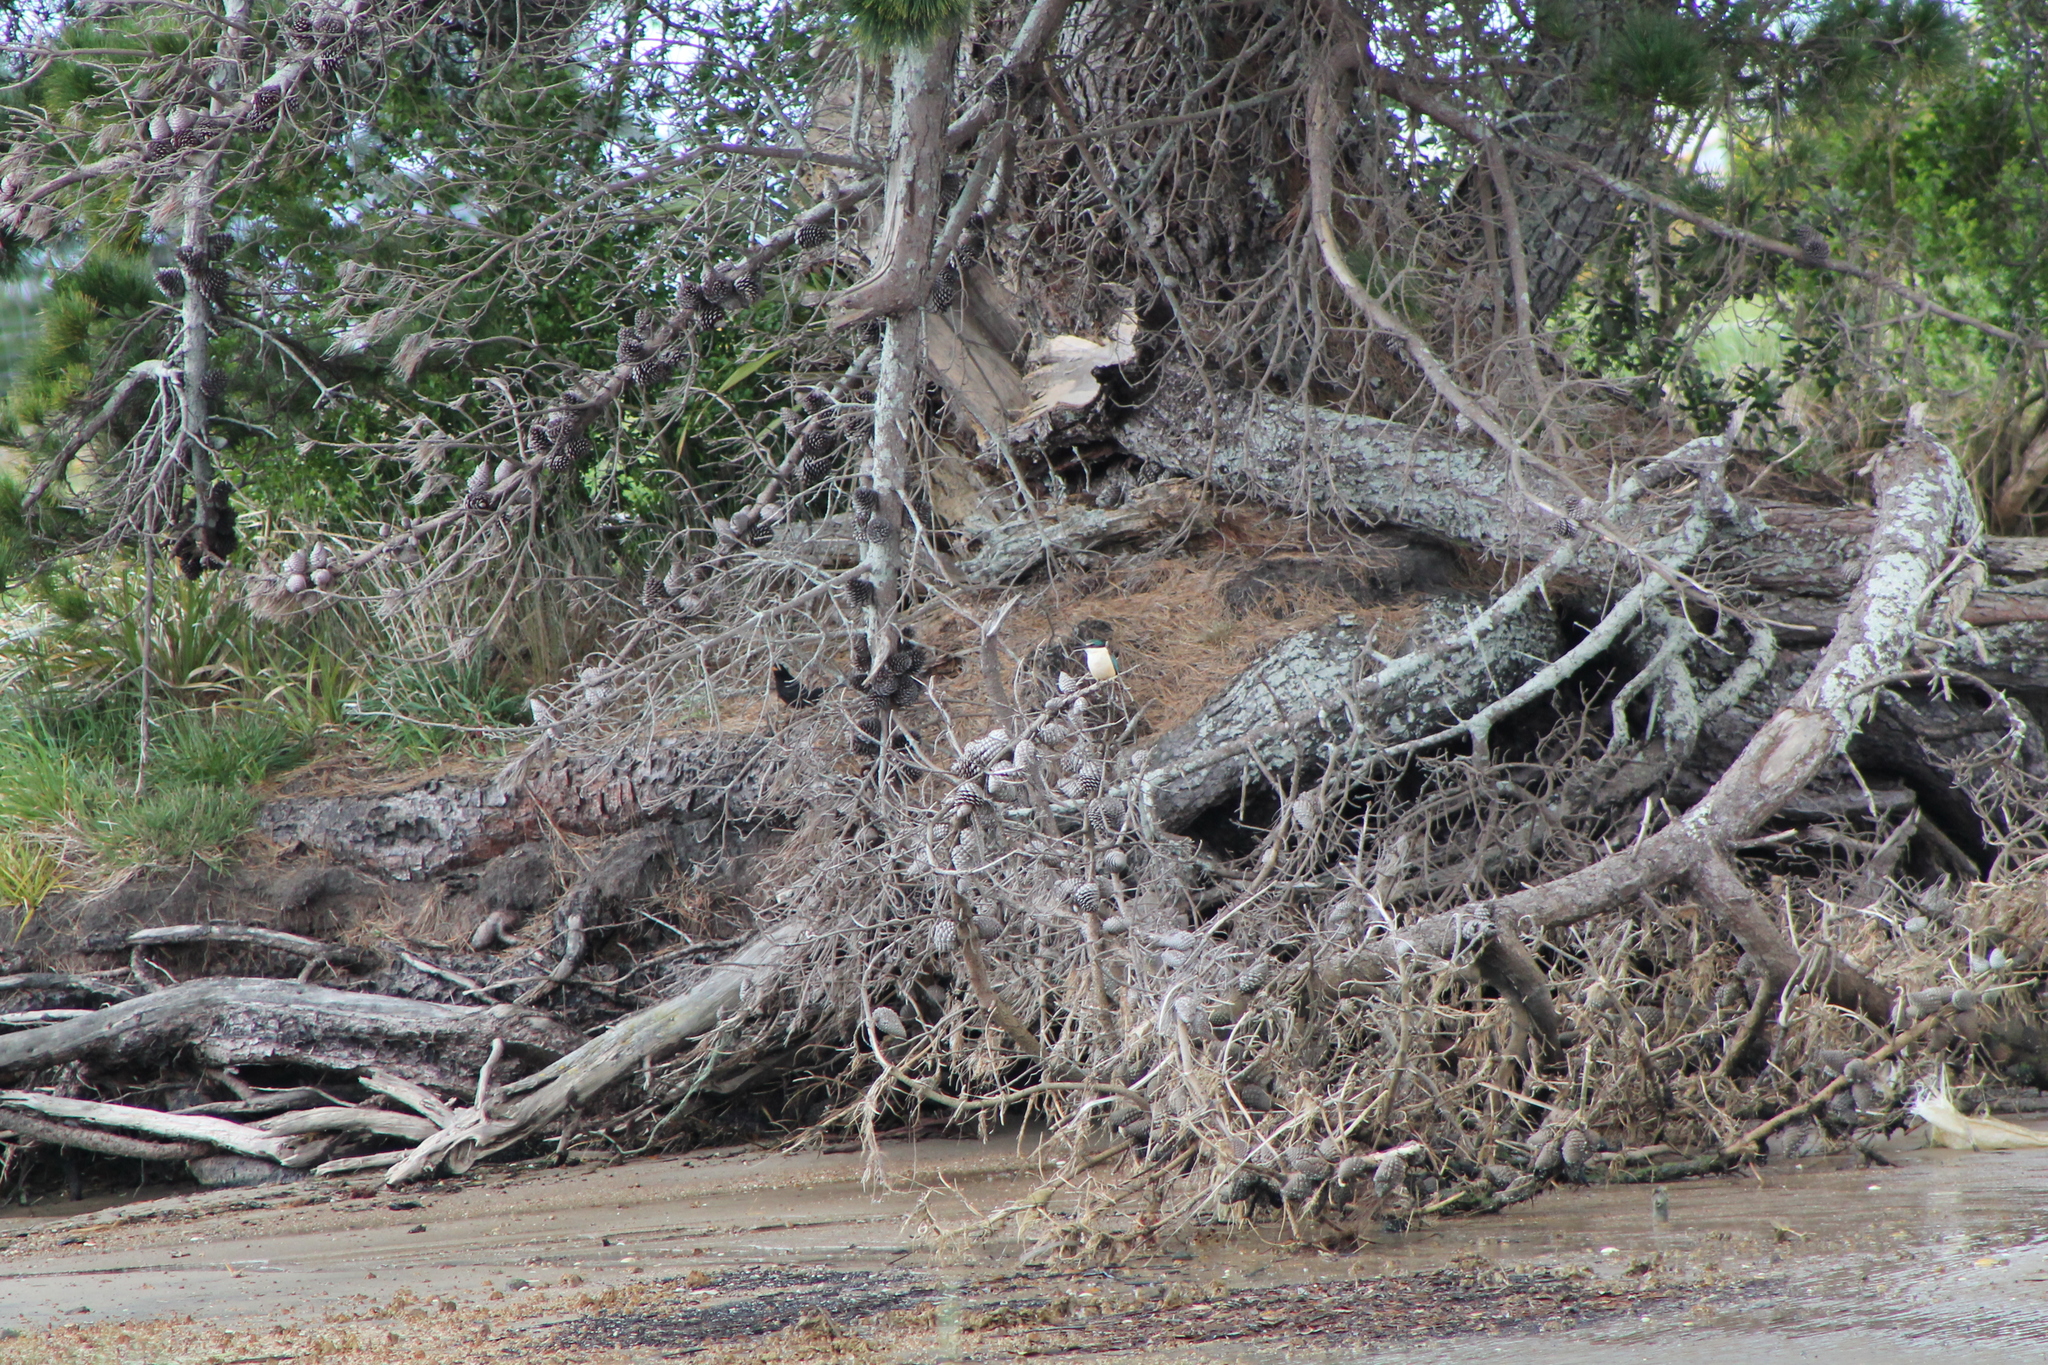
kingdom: Animalia
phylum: Chordata
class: Aves
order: Coraciiformes
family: Alcedinidae
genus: Todiramphus
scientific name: Todiramphus sanctus
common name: Sacred kingfisher
